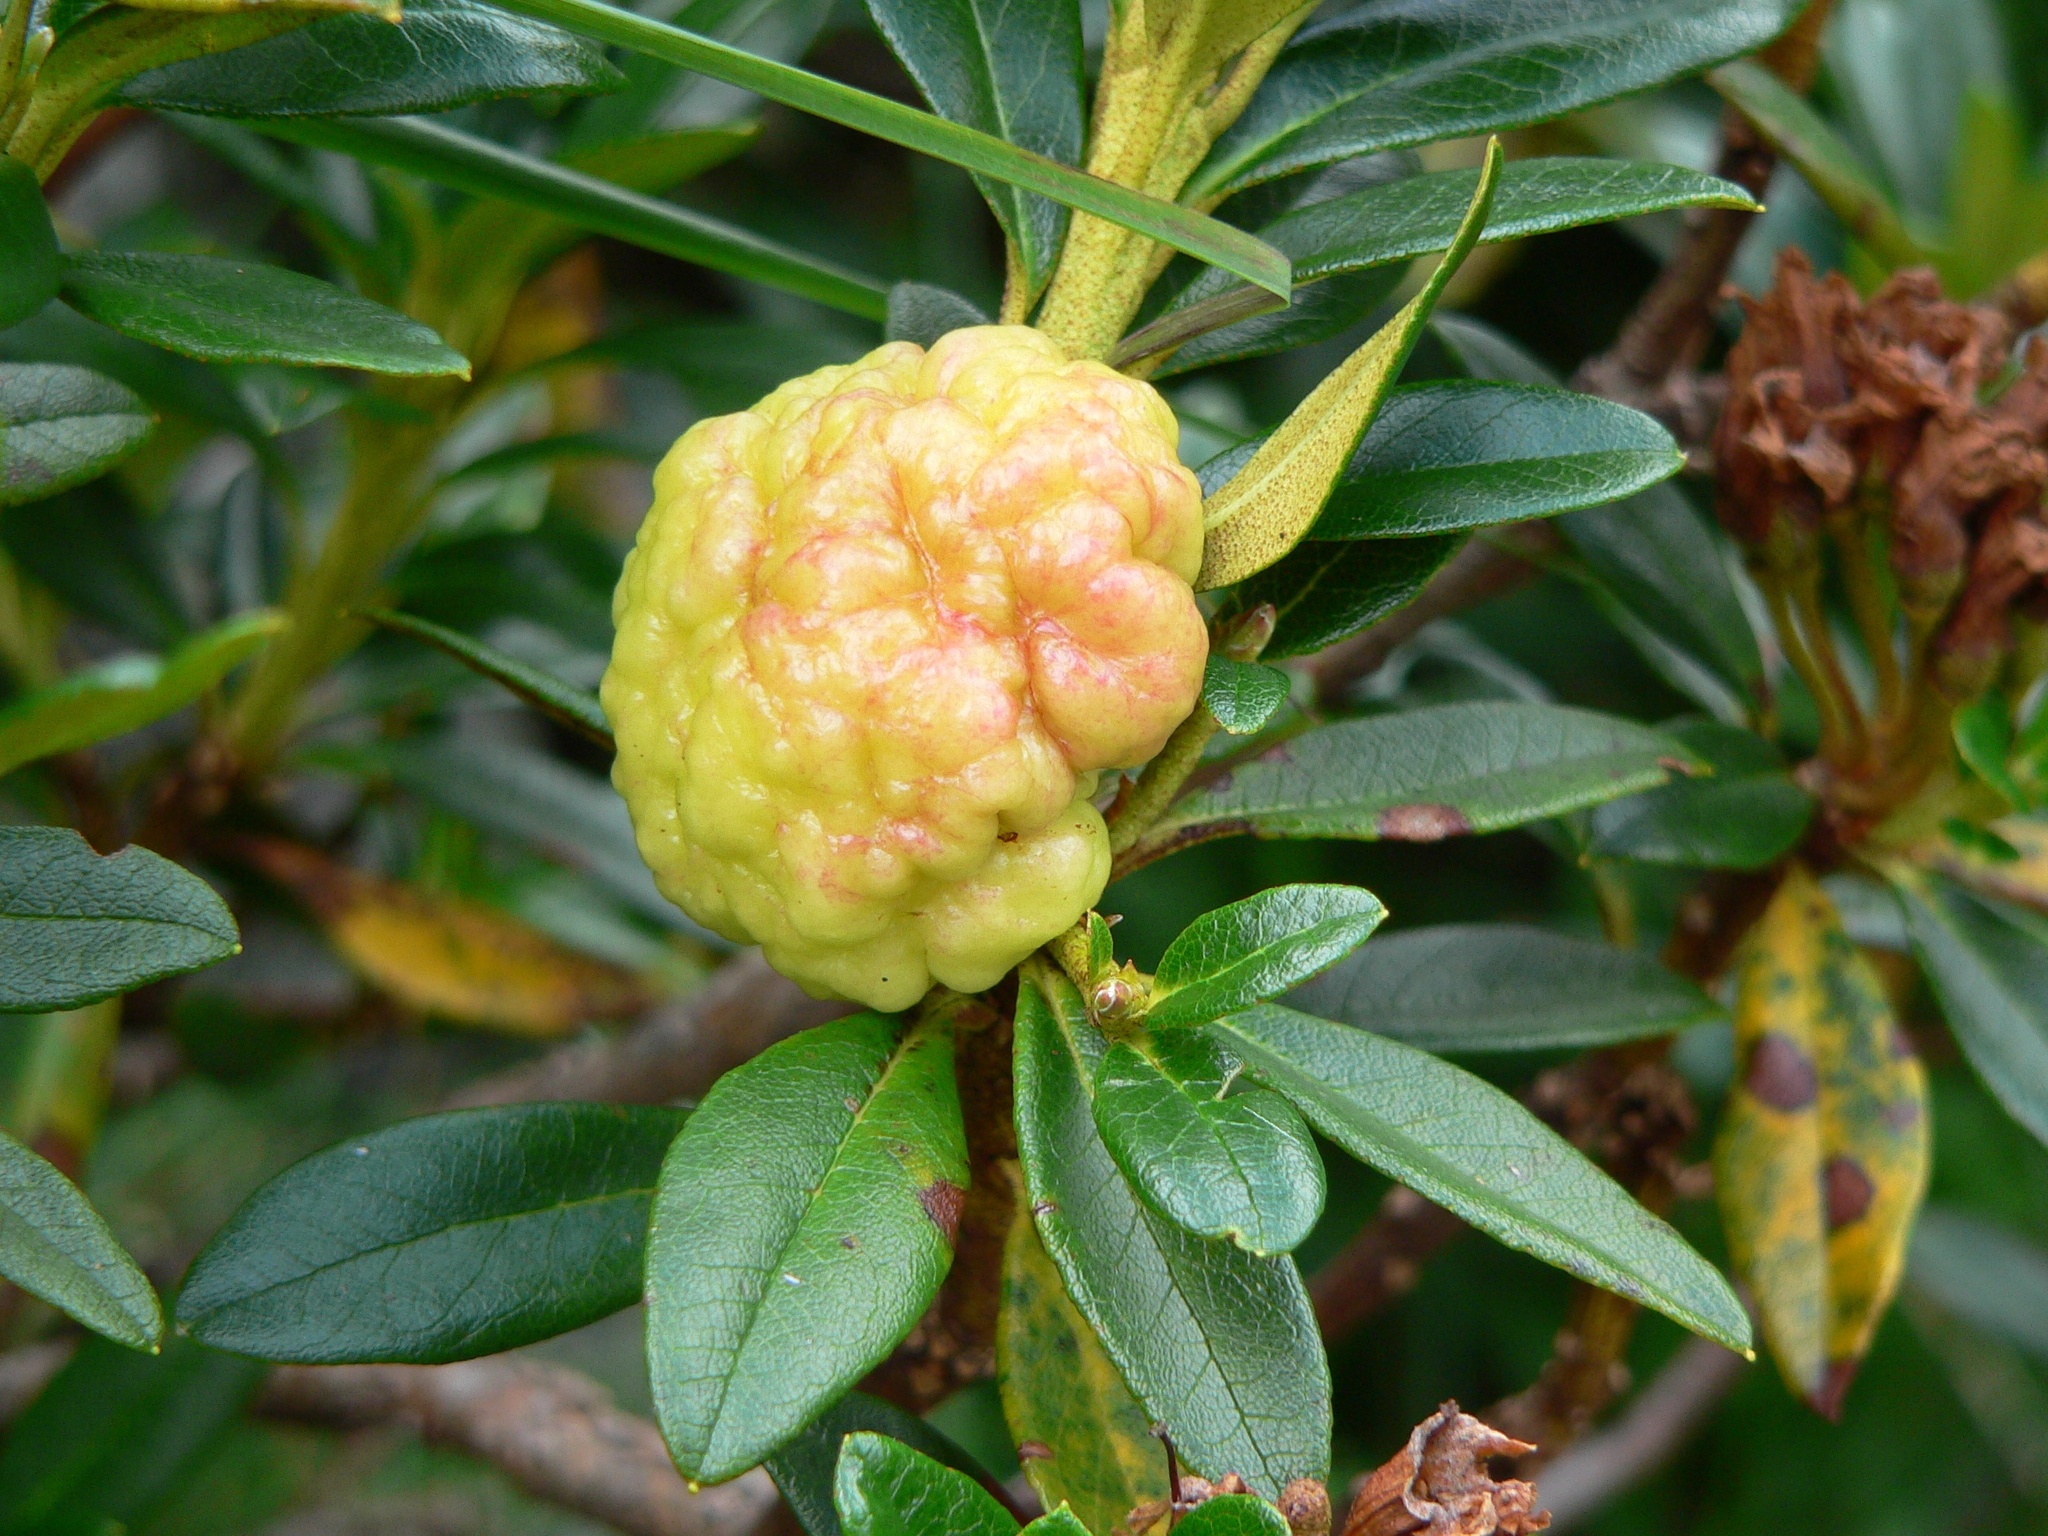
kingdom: Fungi
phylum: Basidiomycota
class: Exobasidiomycetes
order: Exobasidiales
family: Exobasidiaceae
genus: Exobasidium
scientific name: Exobasidium rhododendri
